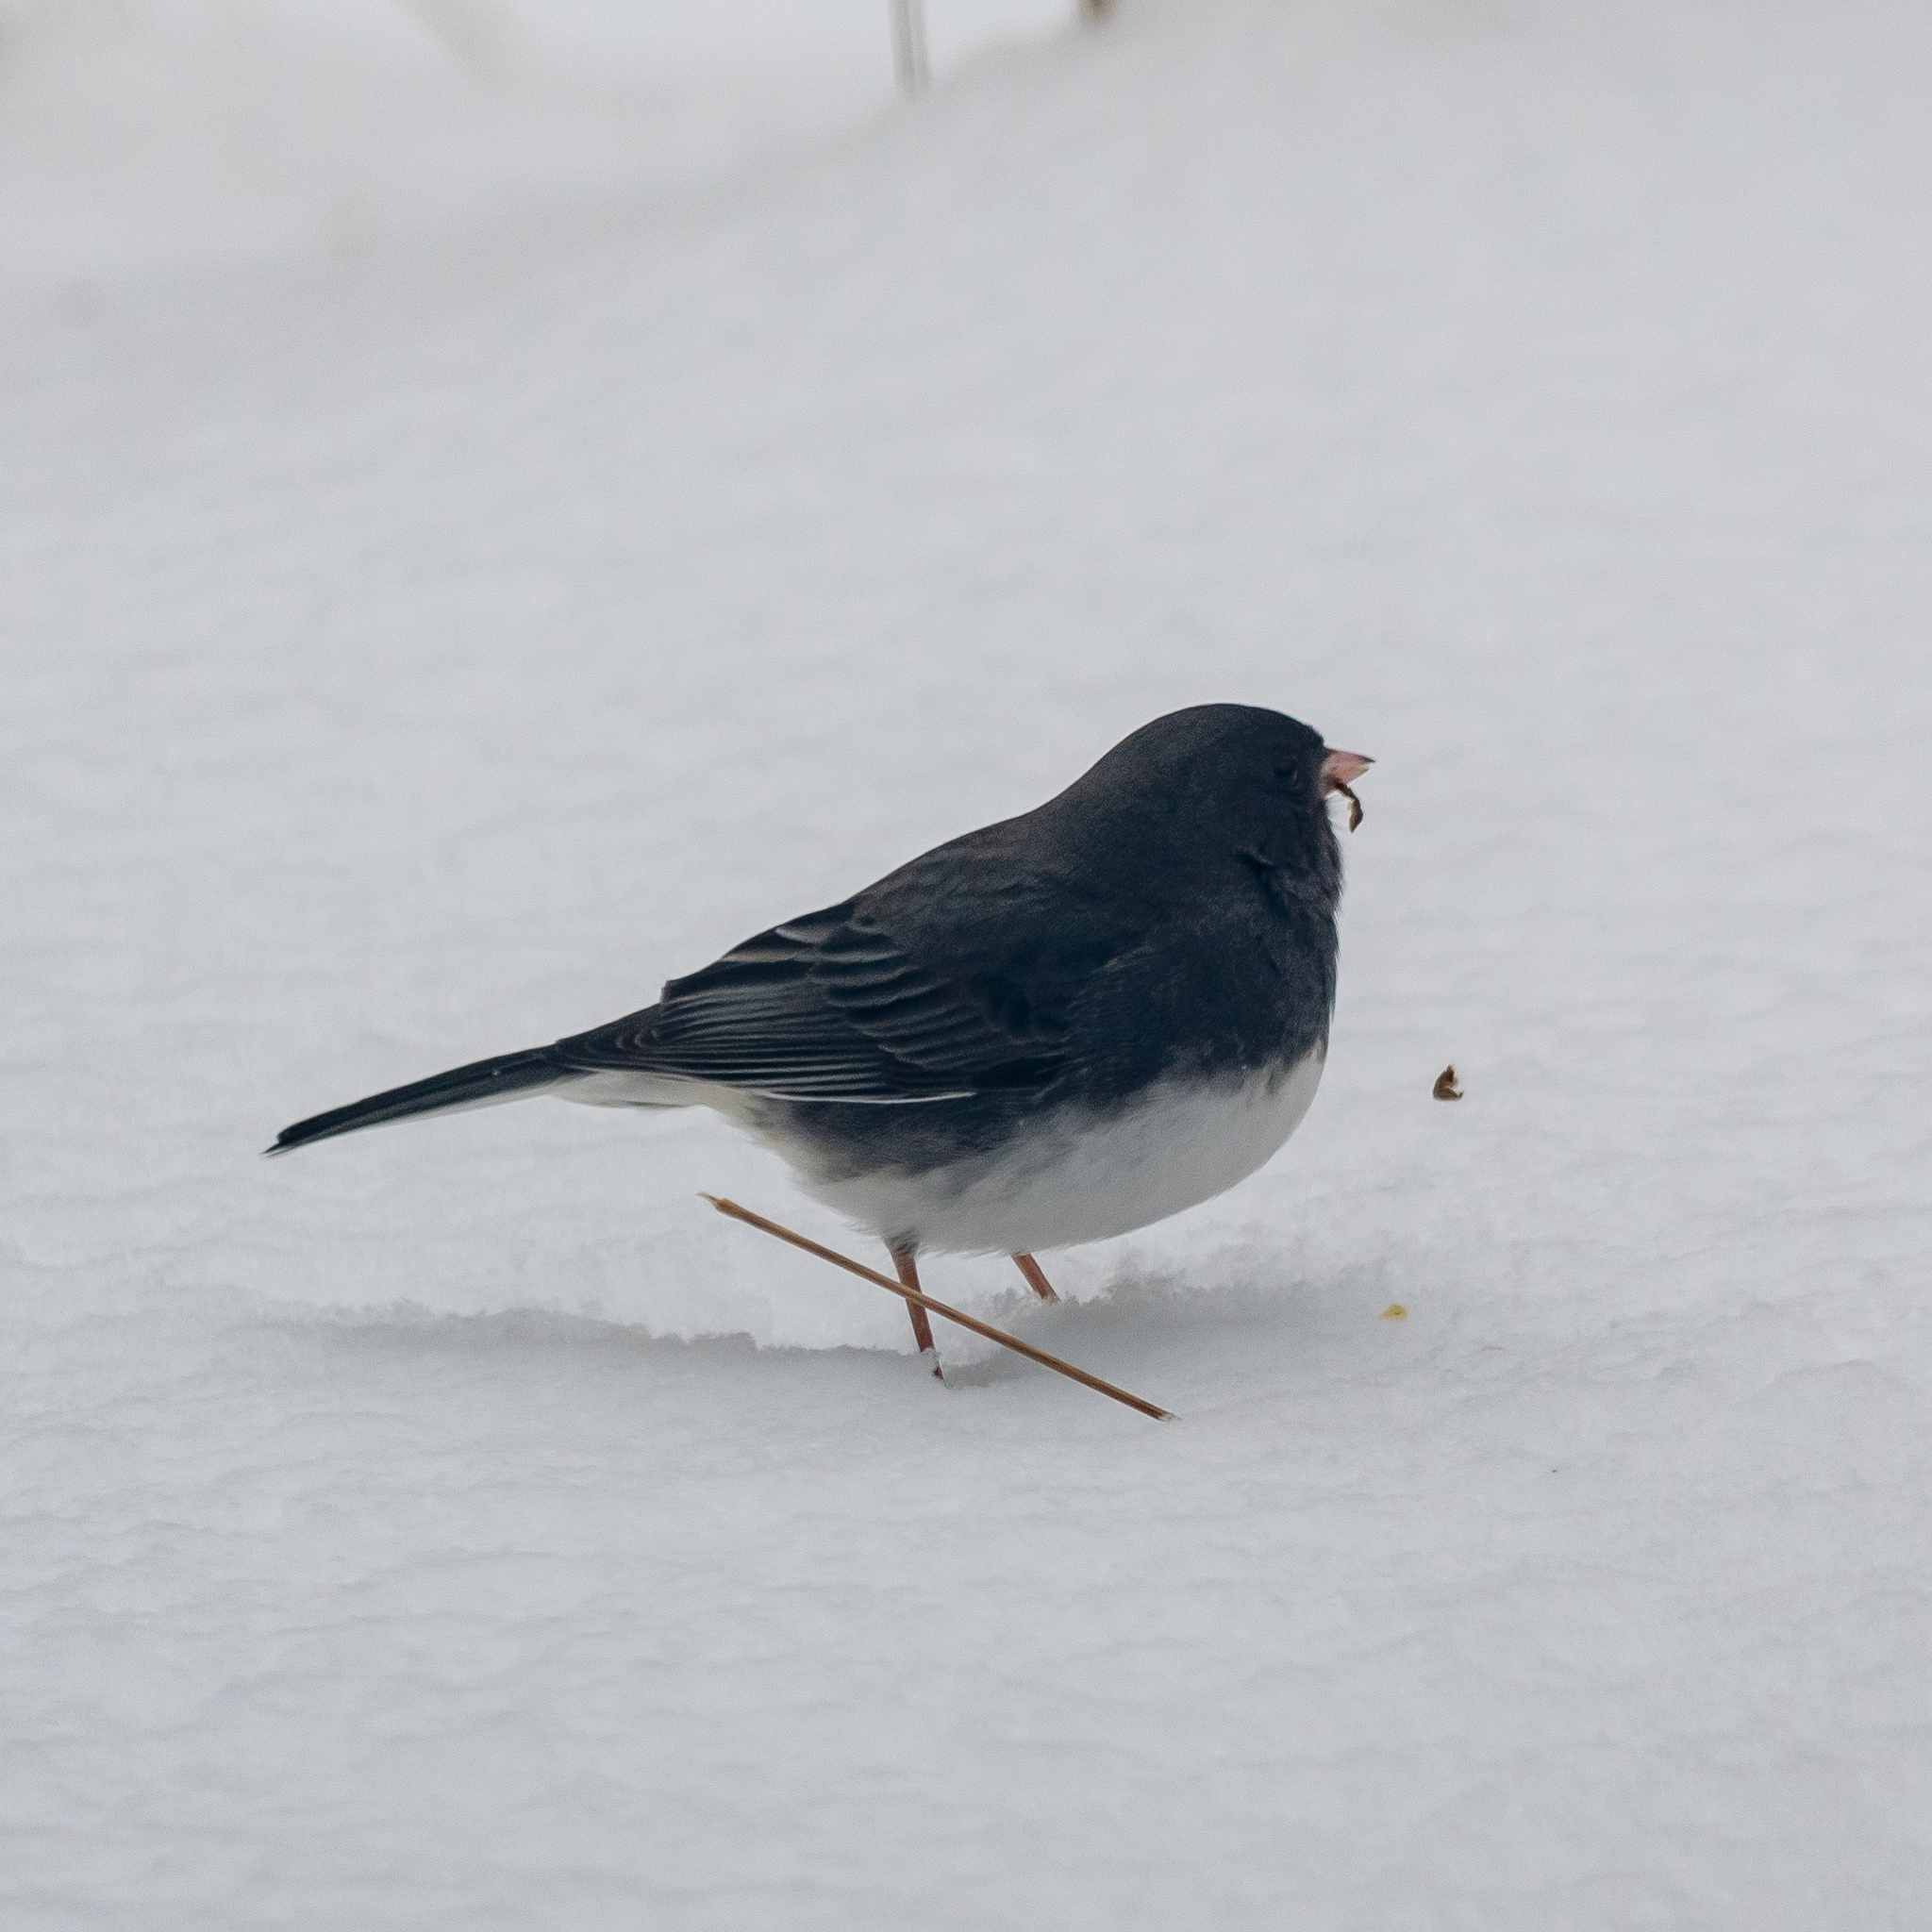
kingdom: Animalia
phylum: Chordata
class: Aves
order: Passeriformes
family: Passerellidae
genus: Junco
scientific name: Junco hyemalis
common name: Dark-eyed junco
